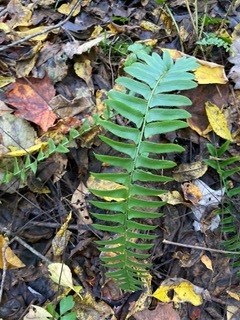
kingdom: Plantae
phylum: Tracheophyta
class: Polypodiopsida
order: Polypodiales
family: Dryopteridaceae
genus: Polystichum
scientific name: Polystichum acrostichoides
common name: Christmas fern
